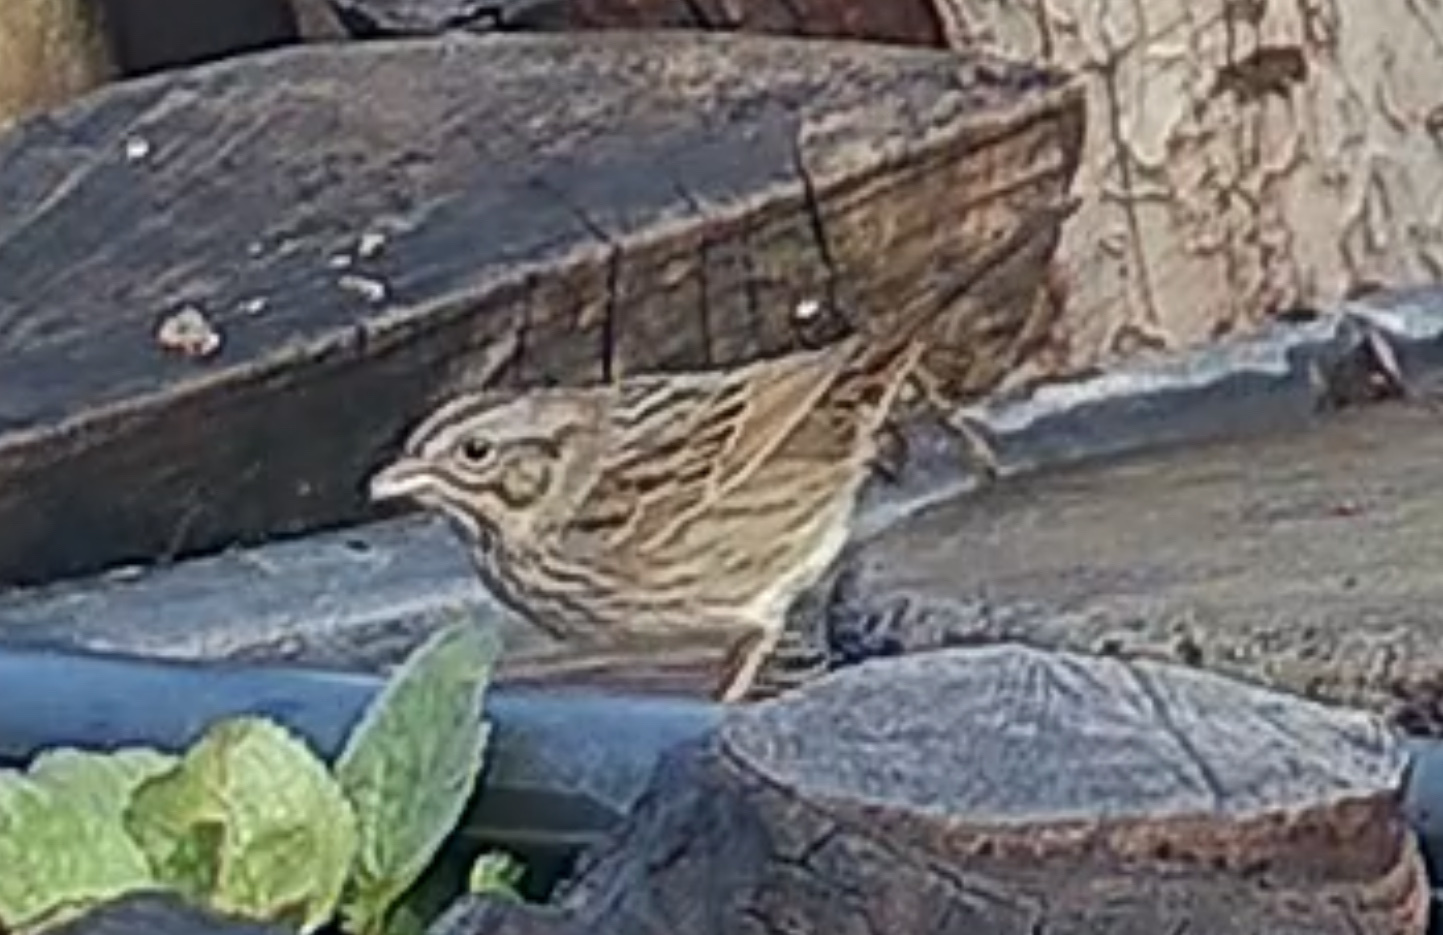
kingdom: Animalia
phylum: Chordata
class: Aves
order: Passeriformes
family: Passerellidae
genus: Melospiza
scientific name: Melospiza lincolnii
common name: Lincoln's sparrow
